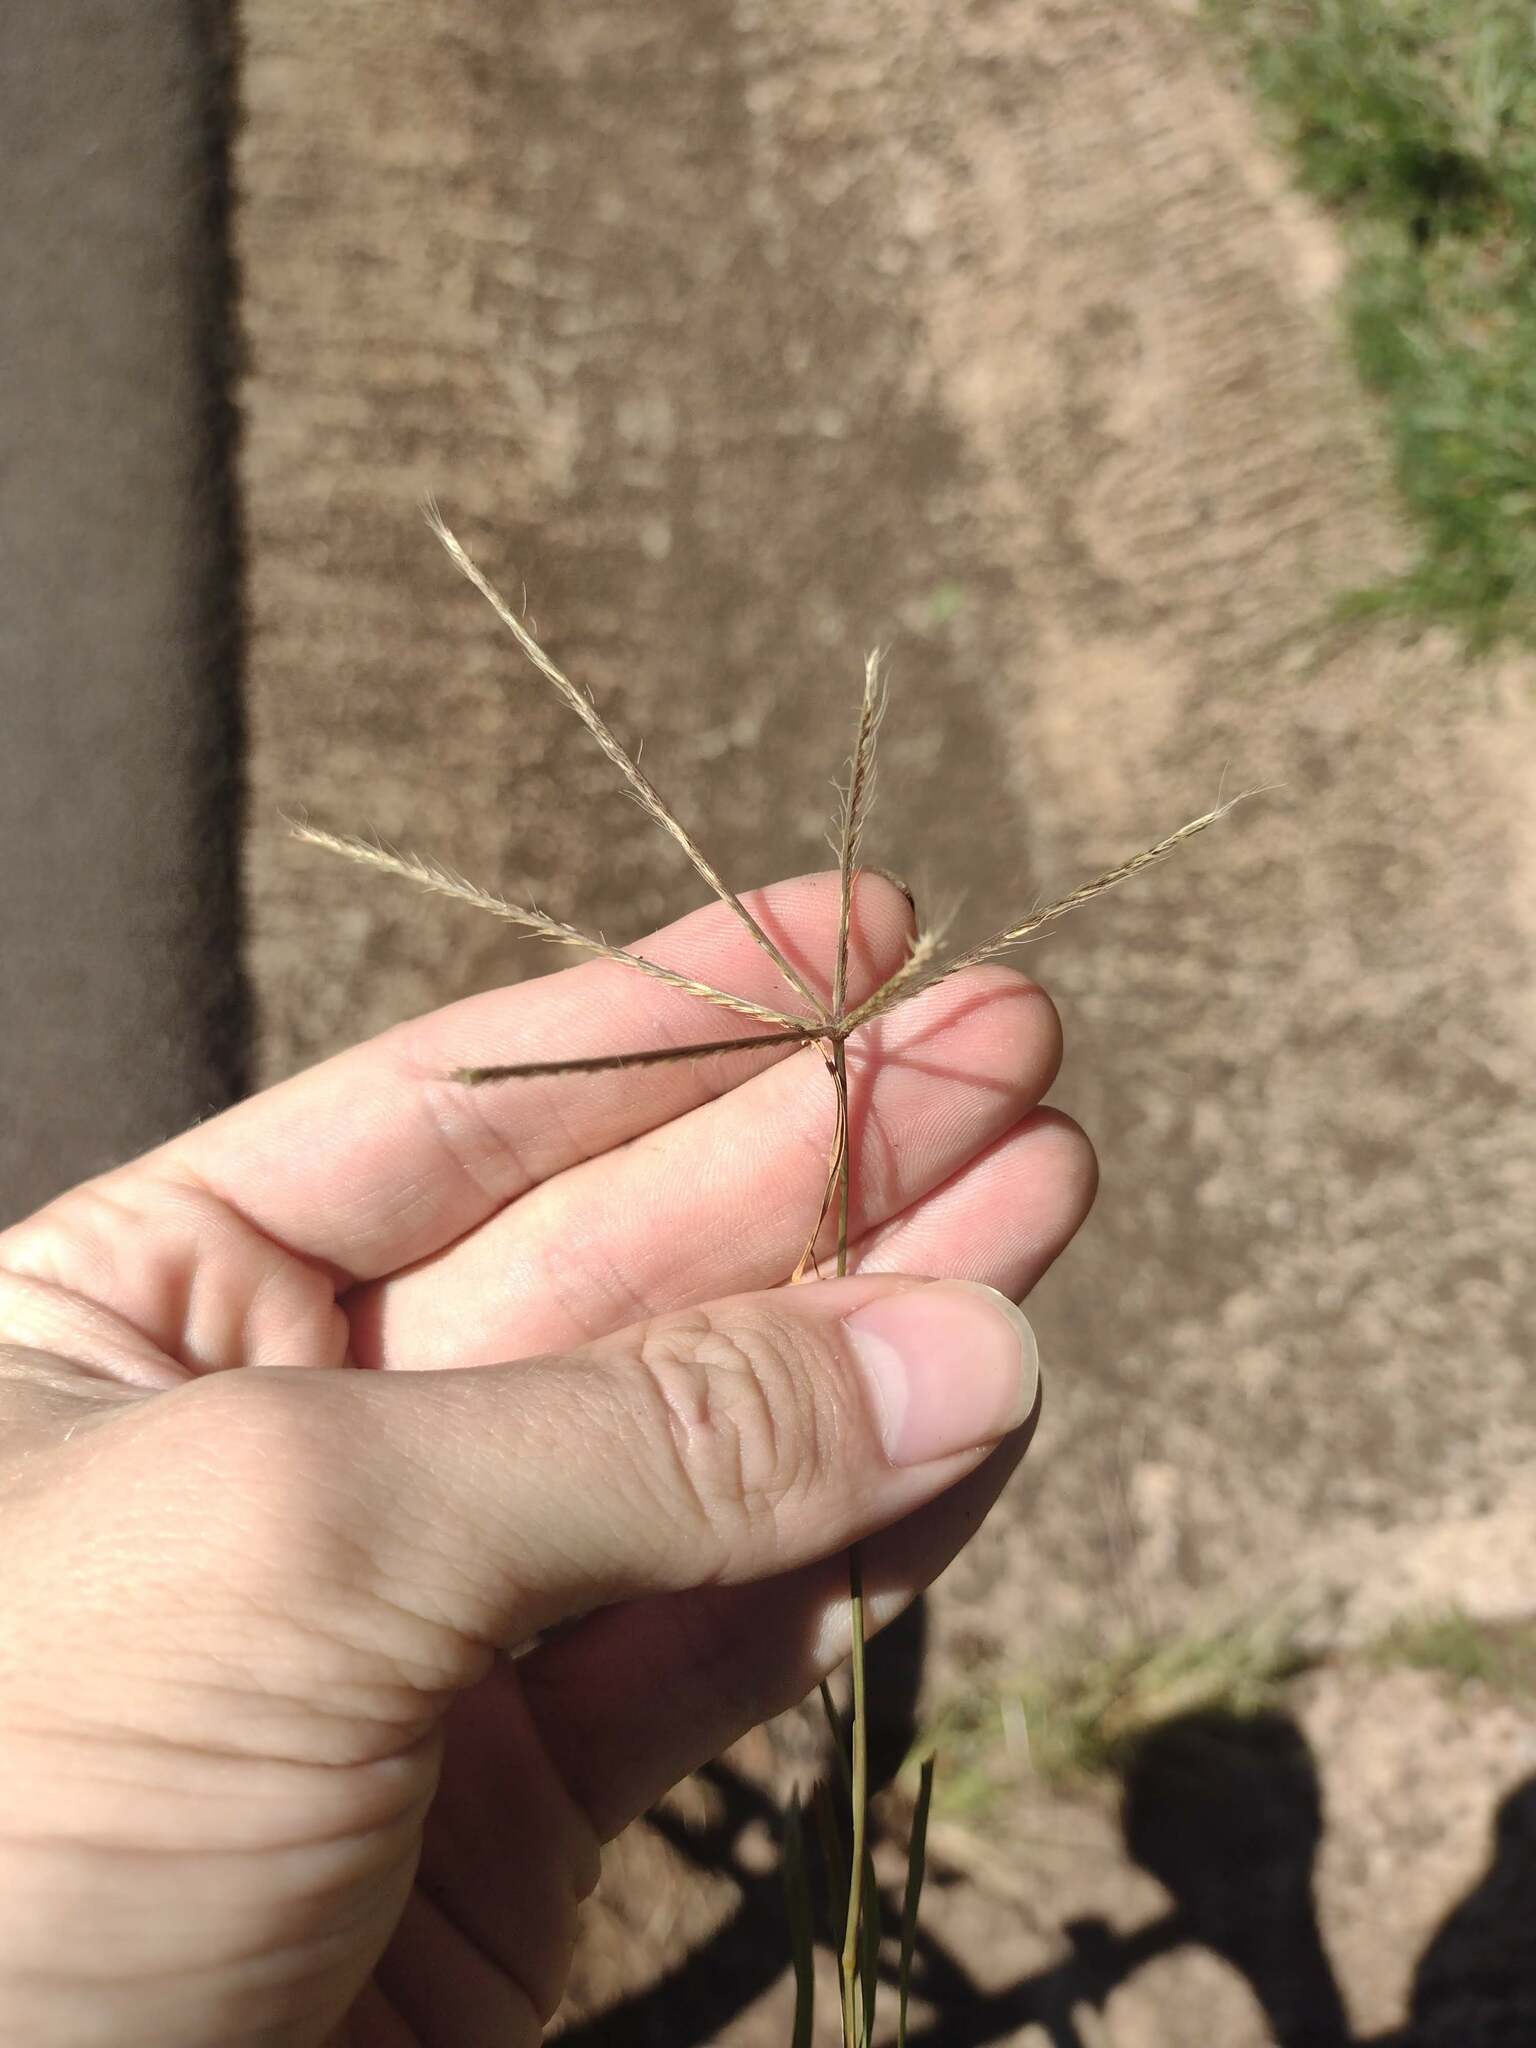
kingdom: Plantae
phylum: Tracheophyta
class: Liliopsida
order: Poales
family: Poaceae
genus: Chloris
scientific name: Chloris divaricata
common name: Spreading windmill grass
